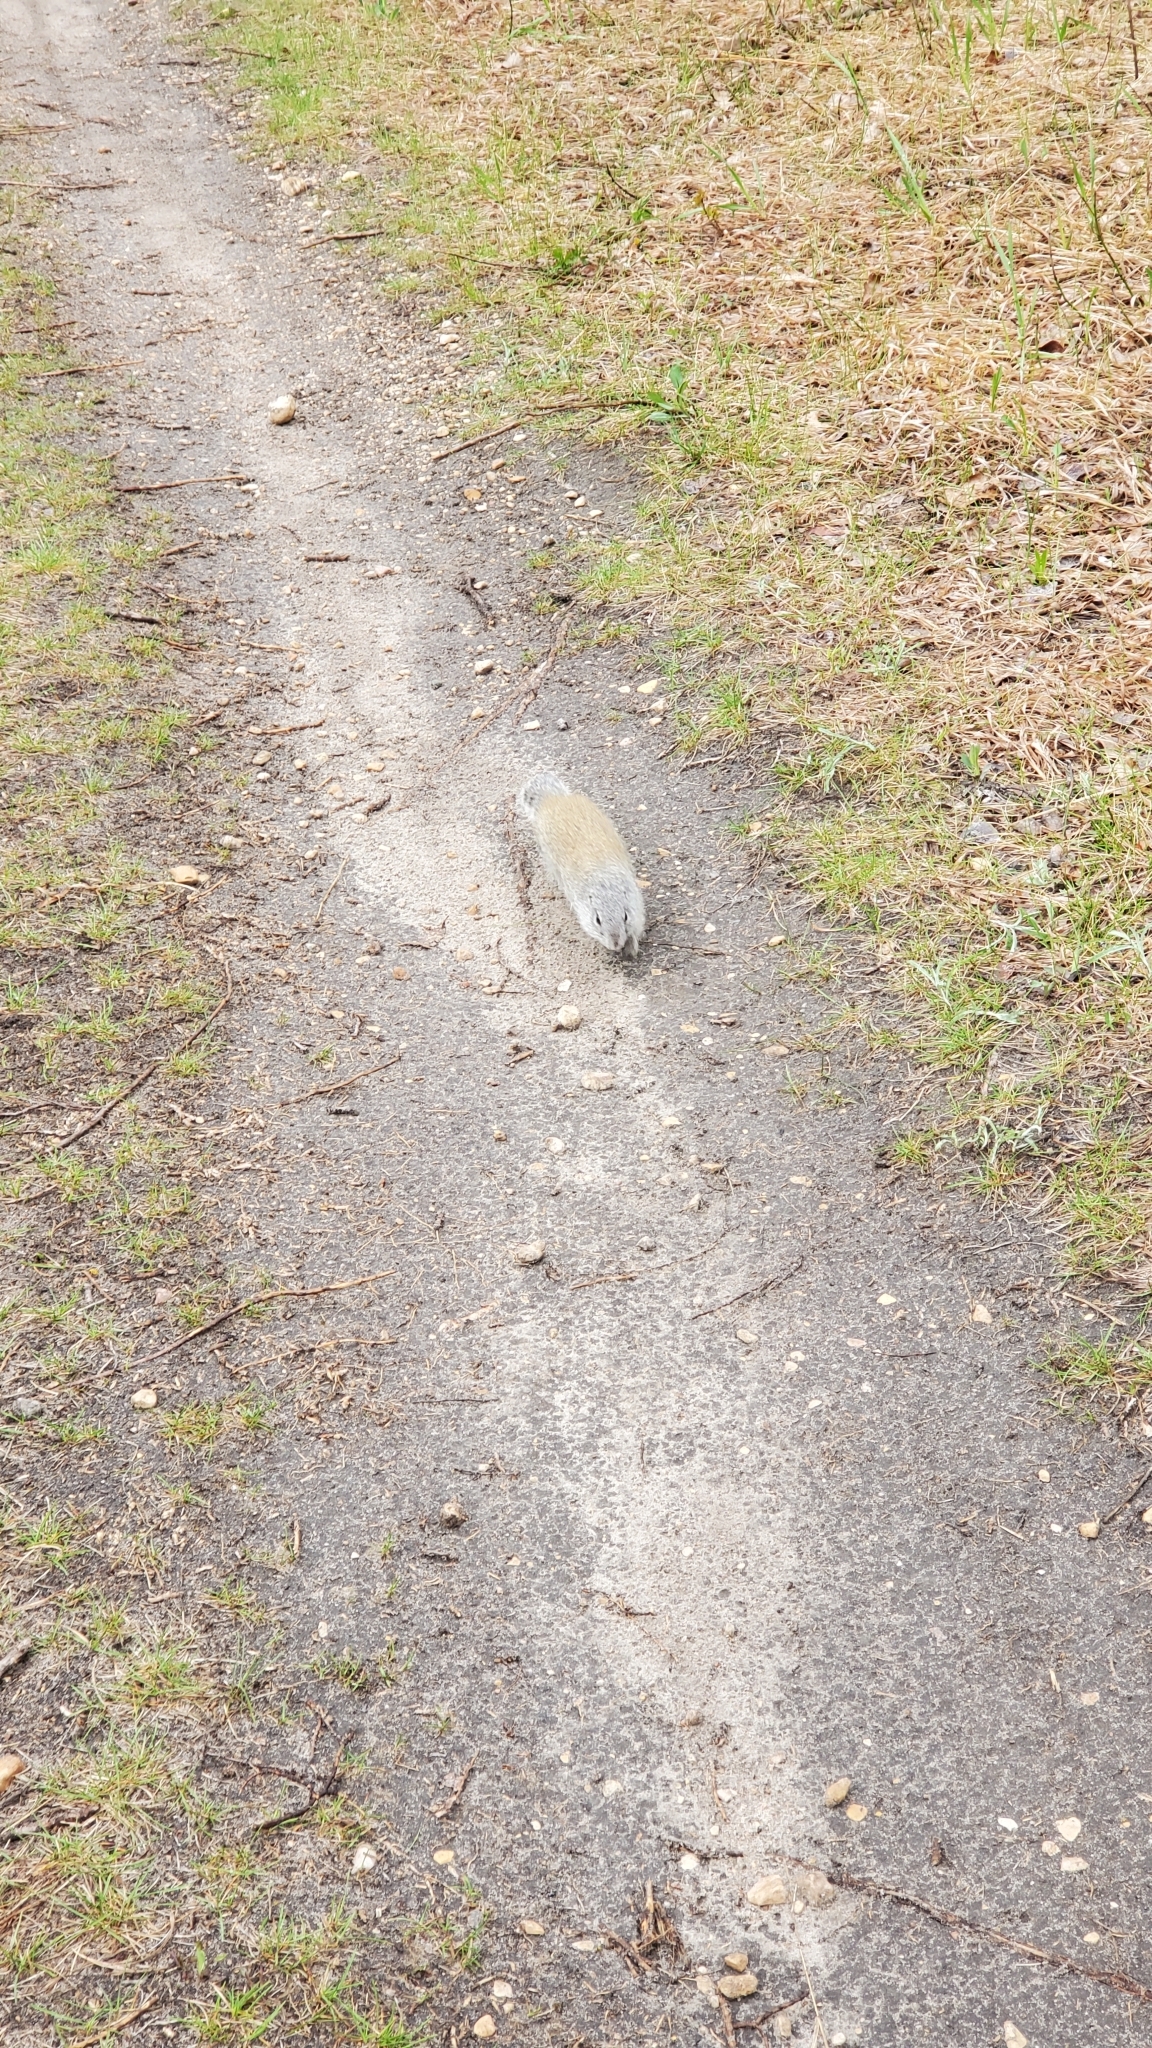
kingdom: Animalia
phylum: Chordata
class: Mammalia
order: Rodentia
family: Sciuridae
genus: Poliocitellus
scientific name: Poliocitellus franklinii
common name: Franklin's ground squirrel
